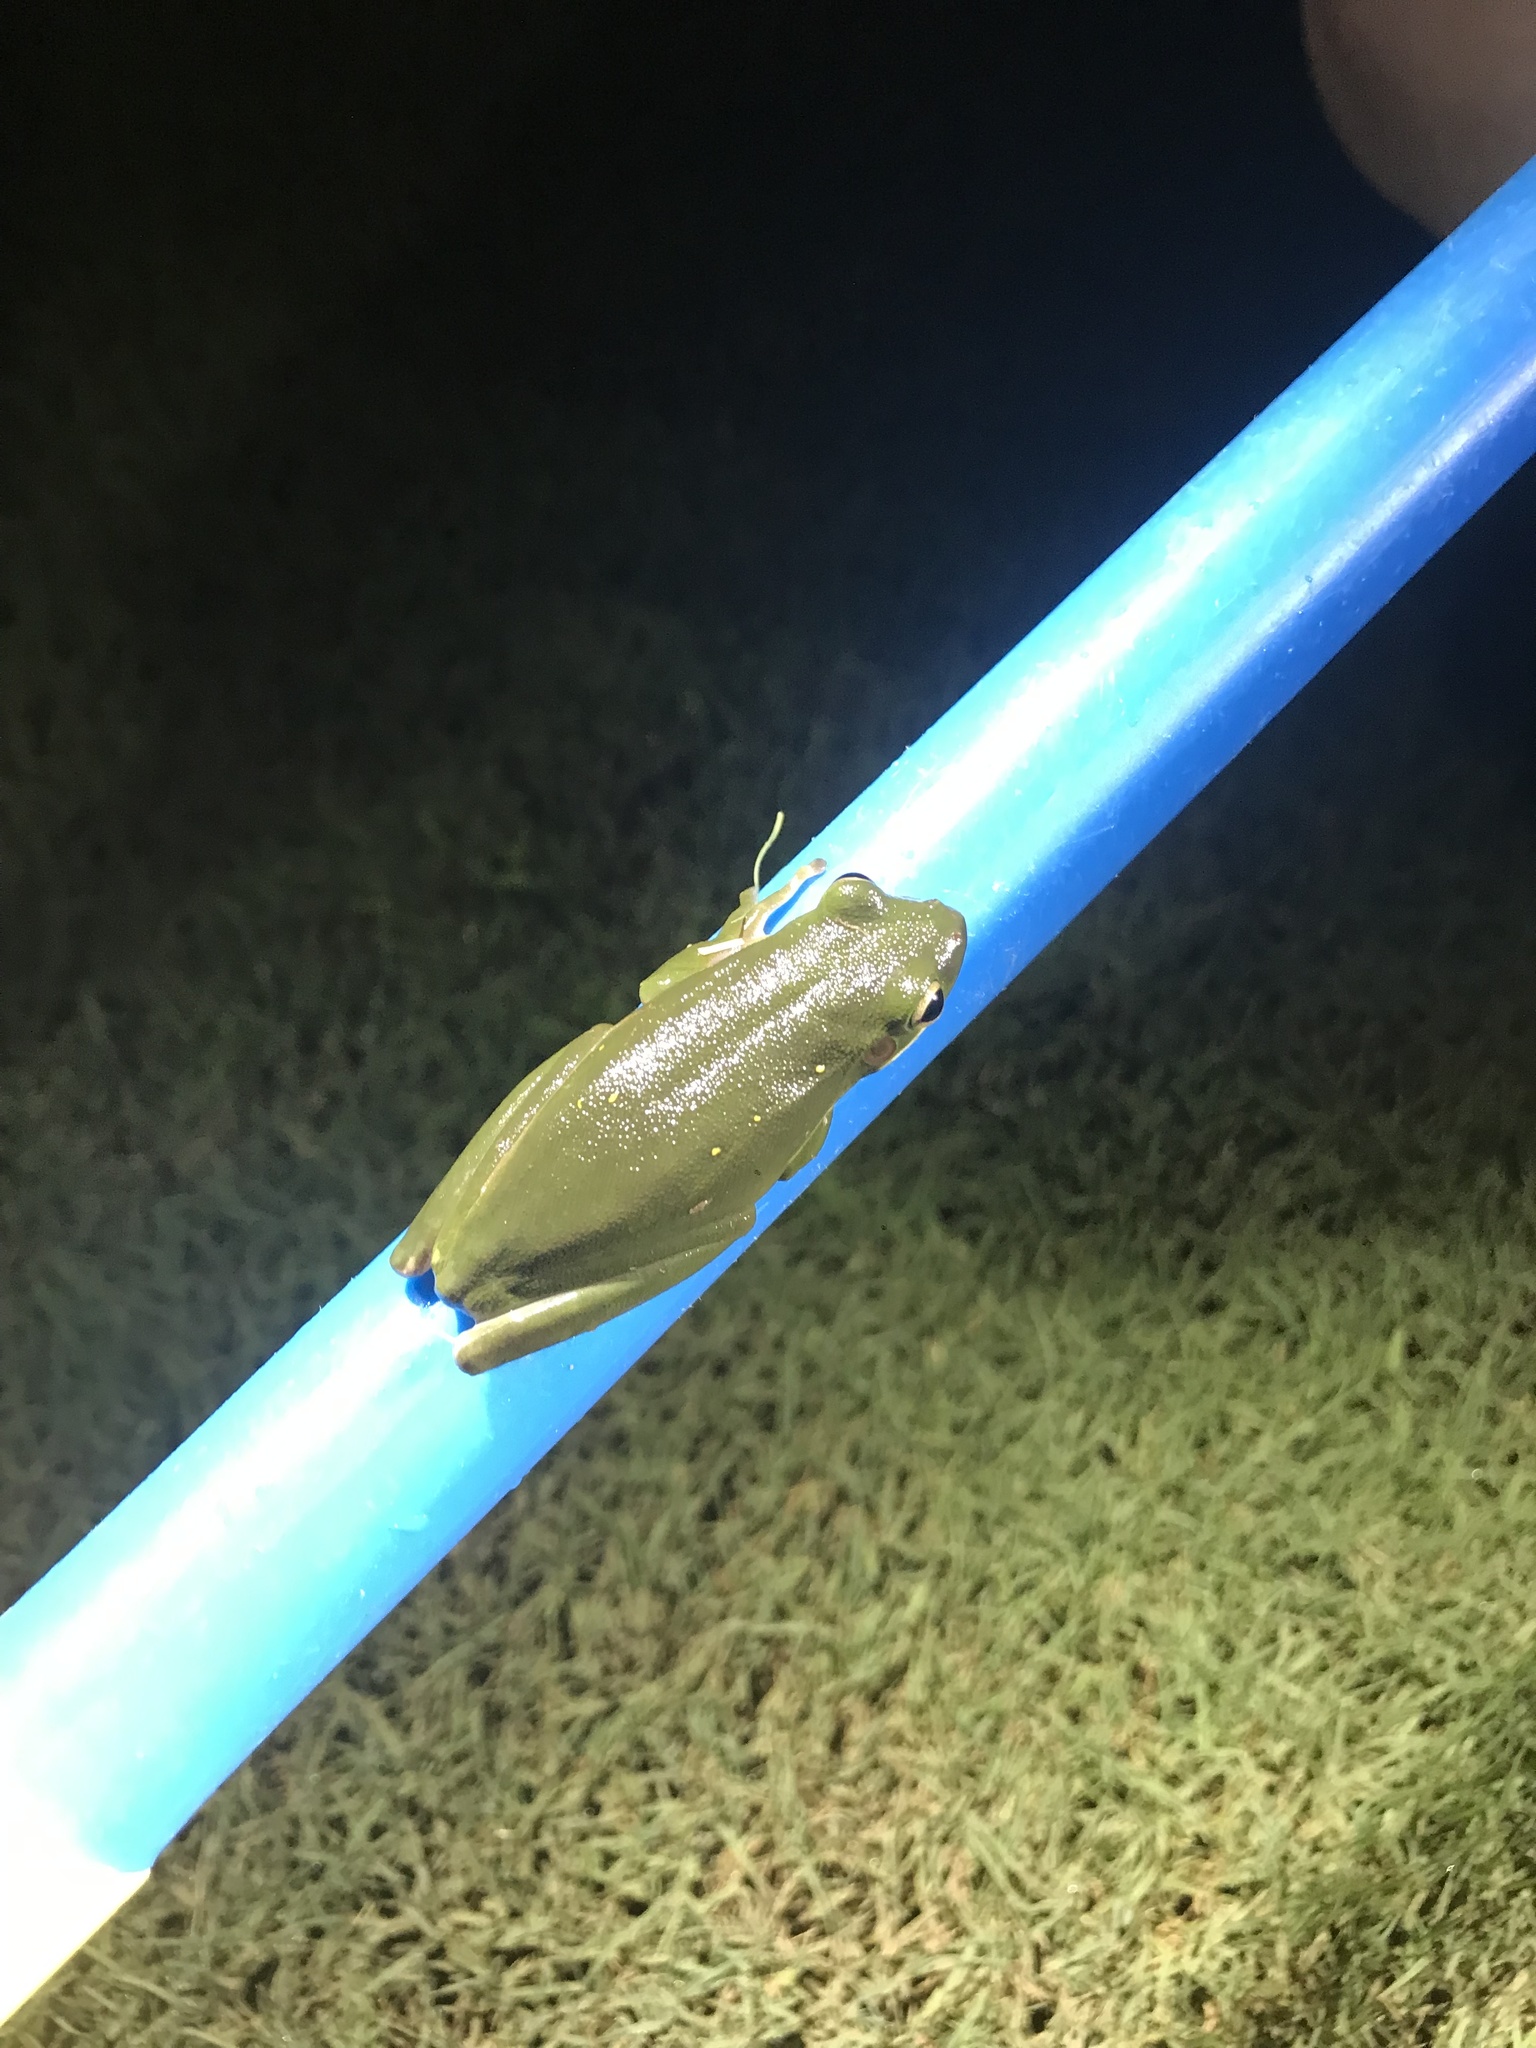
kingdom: Animalia
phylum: Chordata
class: Amphibia
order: Anura
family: Hylidae
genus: Dryophytes
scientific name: Dryophytes cinereus
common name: Green treefrog
